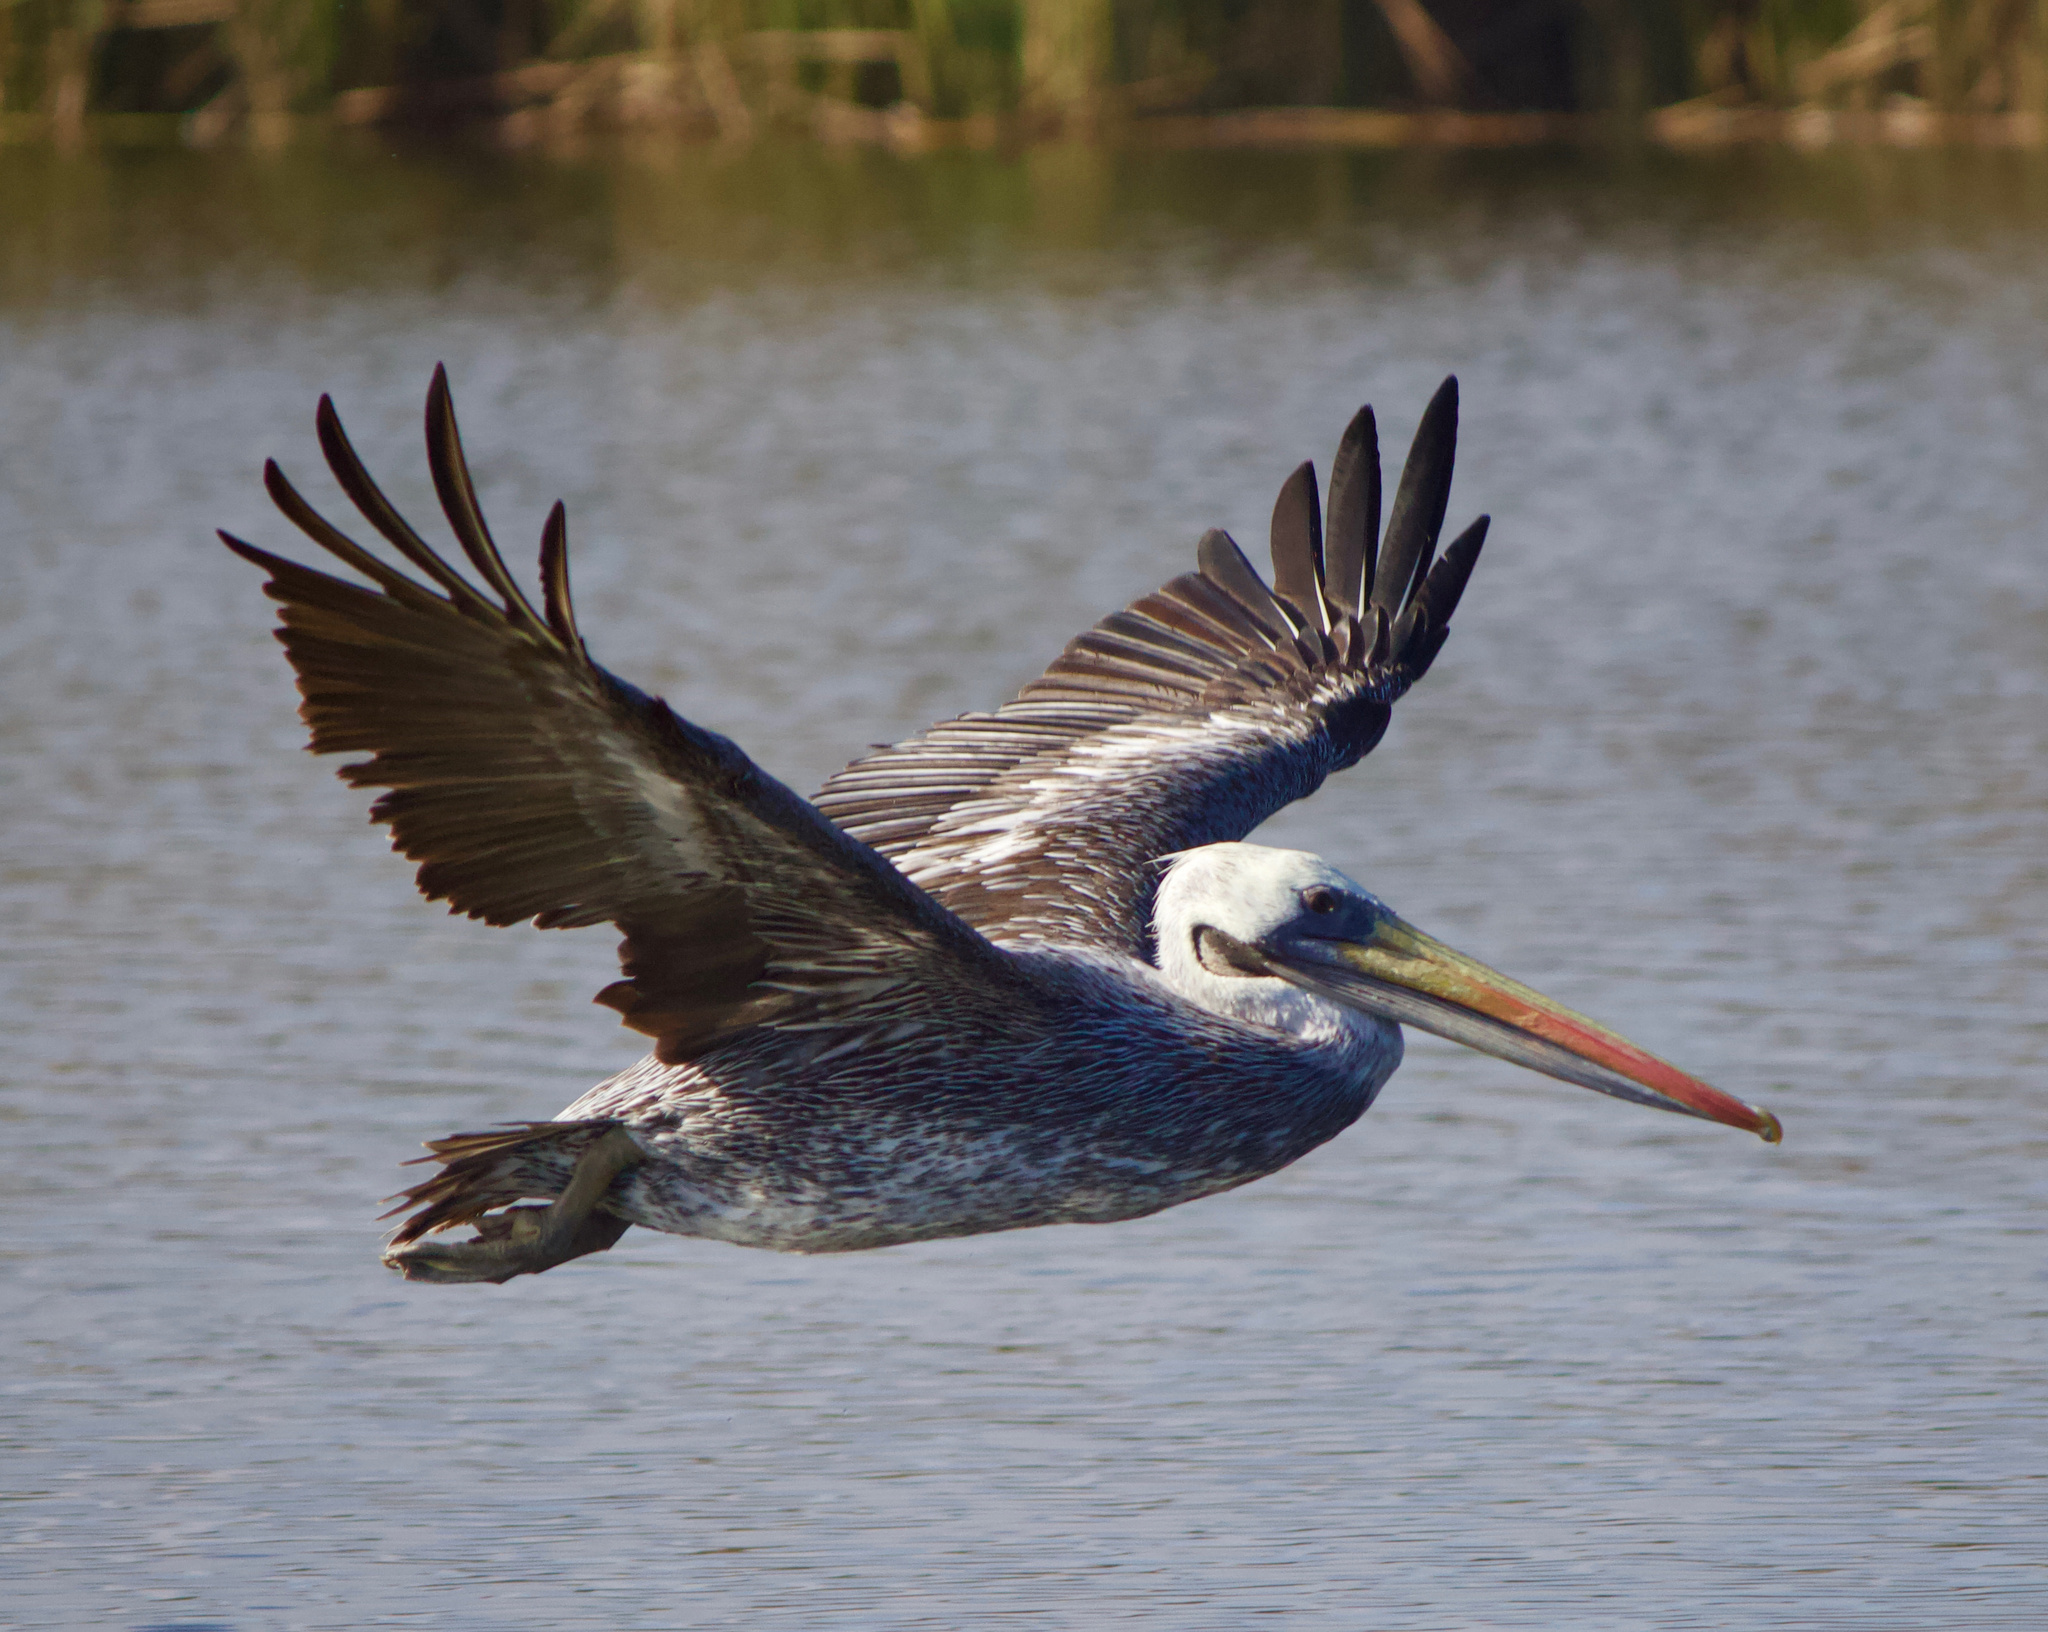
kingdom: Animalia
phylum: Chordata
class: Aves
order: Pelecaniformes
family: Pelecanidae
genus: Pelecanus
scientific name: Pelecanus thagus
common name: Peruvian pelican
